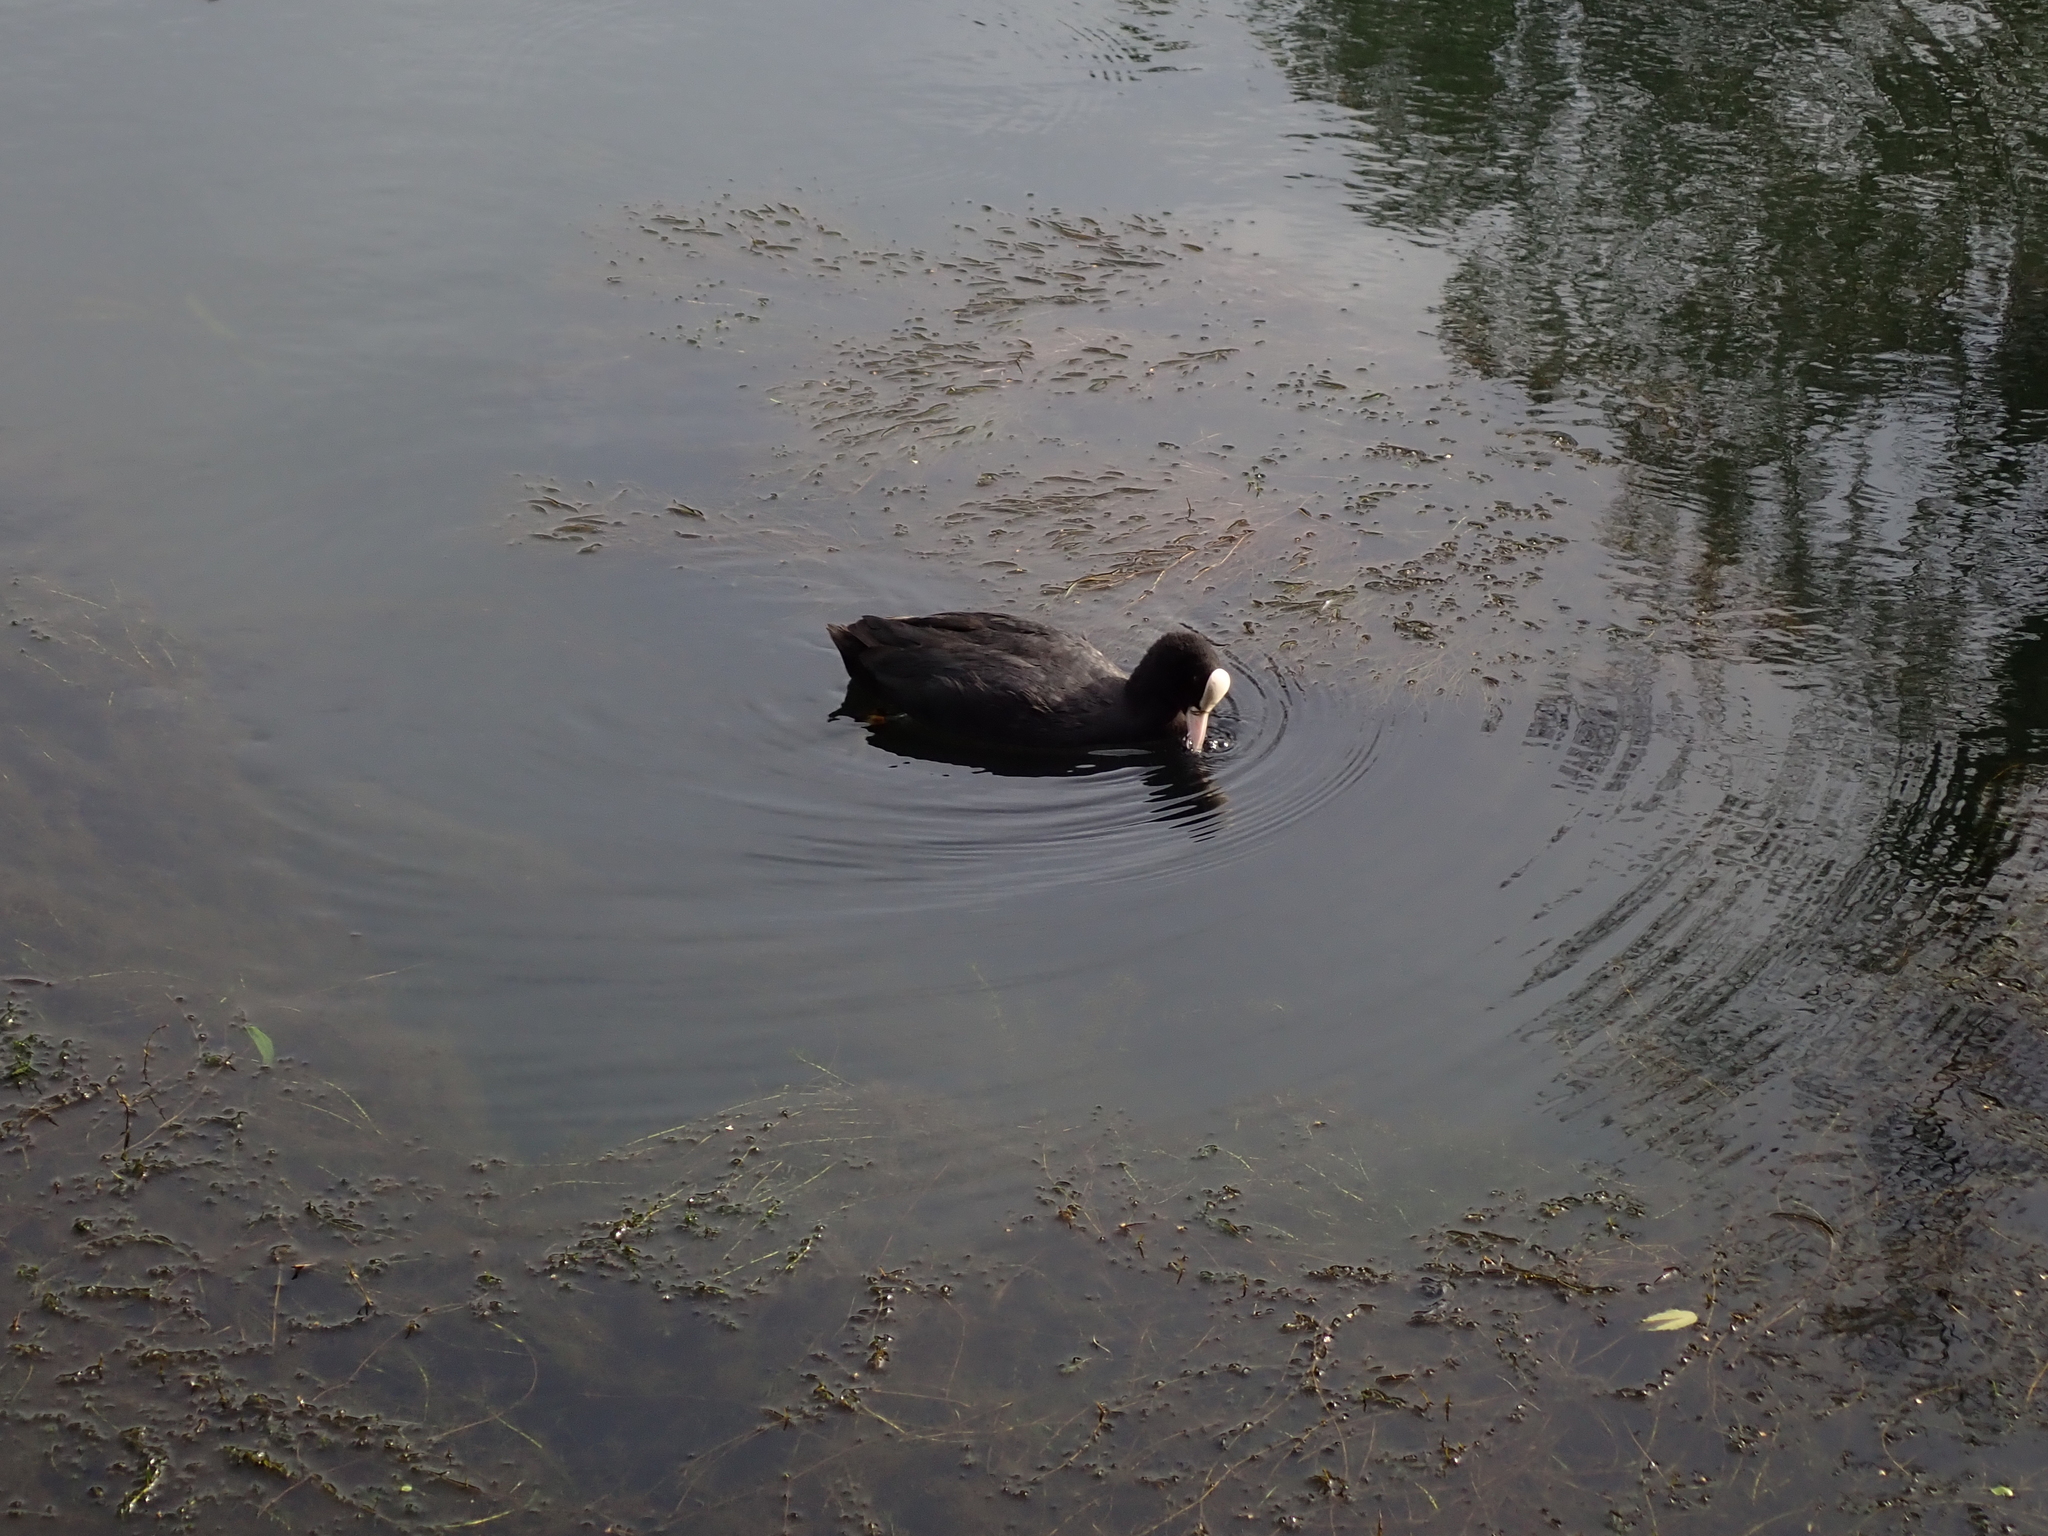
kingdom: Animalia
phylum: Chordata
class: Aves
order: Gruiformes
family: Rallidae
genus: Fulica
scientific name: Fulica atra
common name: Eurasian coot
